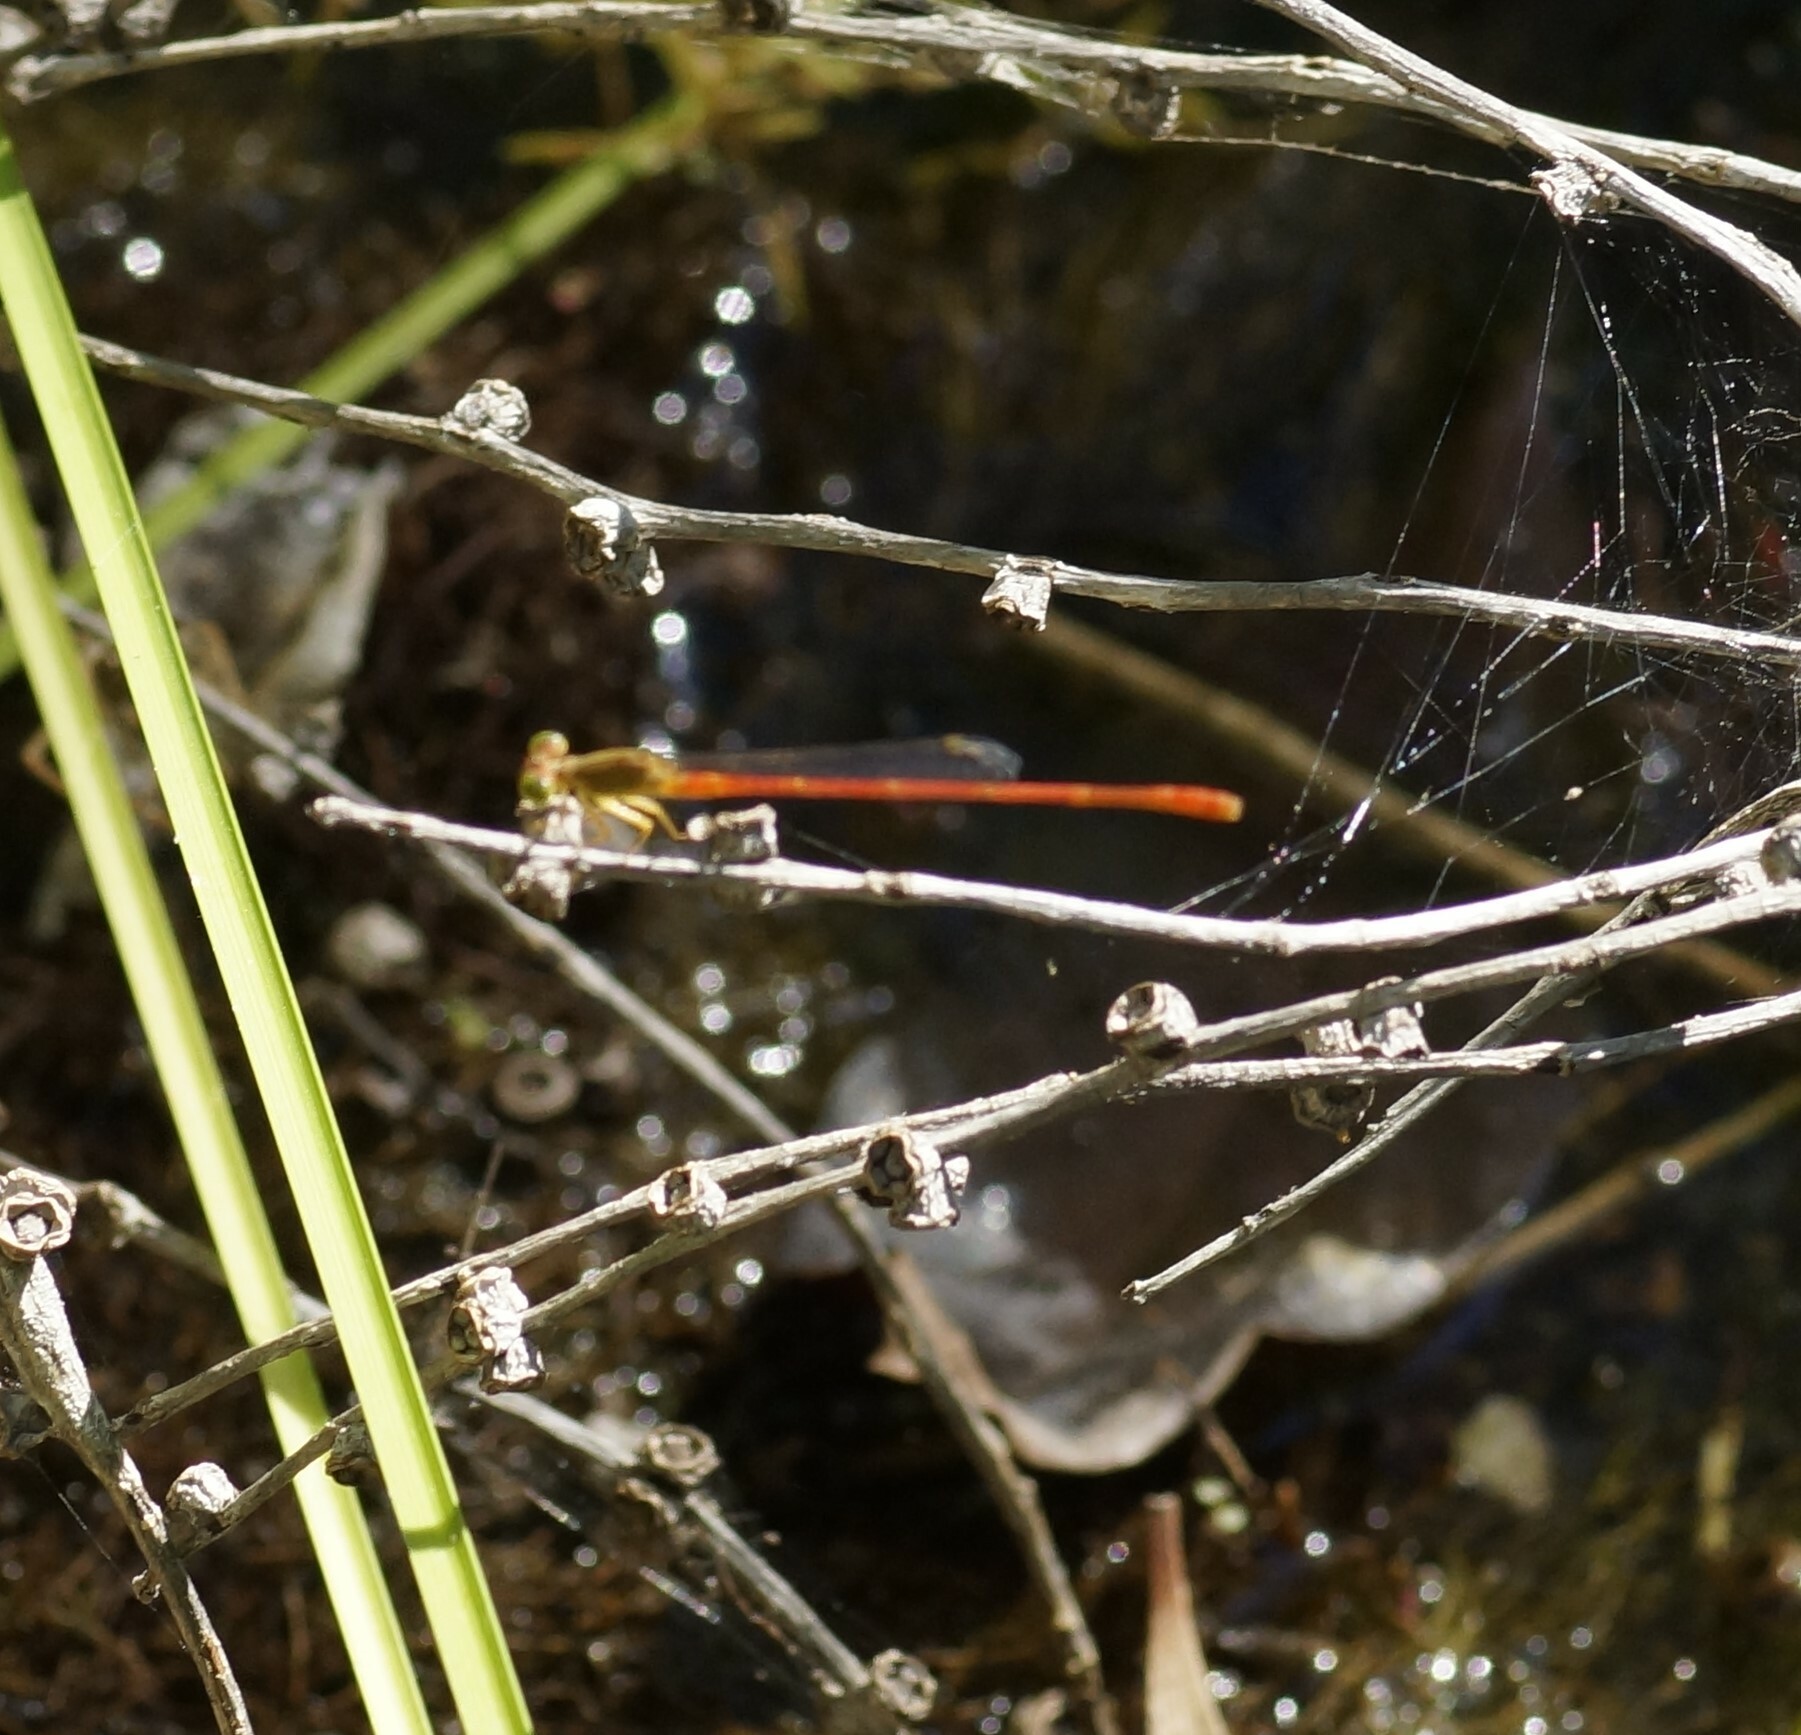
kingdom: Animalia
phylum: Arthropoda
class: Insecta
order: Odonata
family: Coenagrionidae
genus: Ceriagrion
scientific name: Ceriagrion aeruginosum
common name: Redtail
